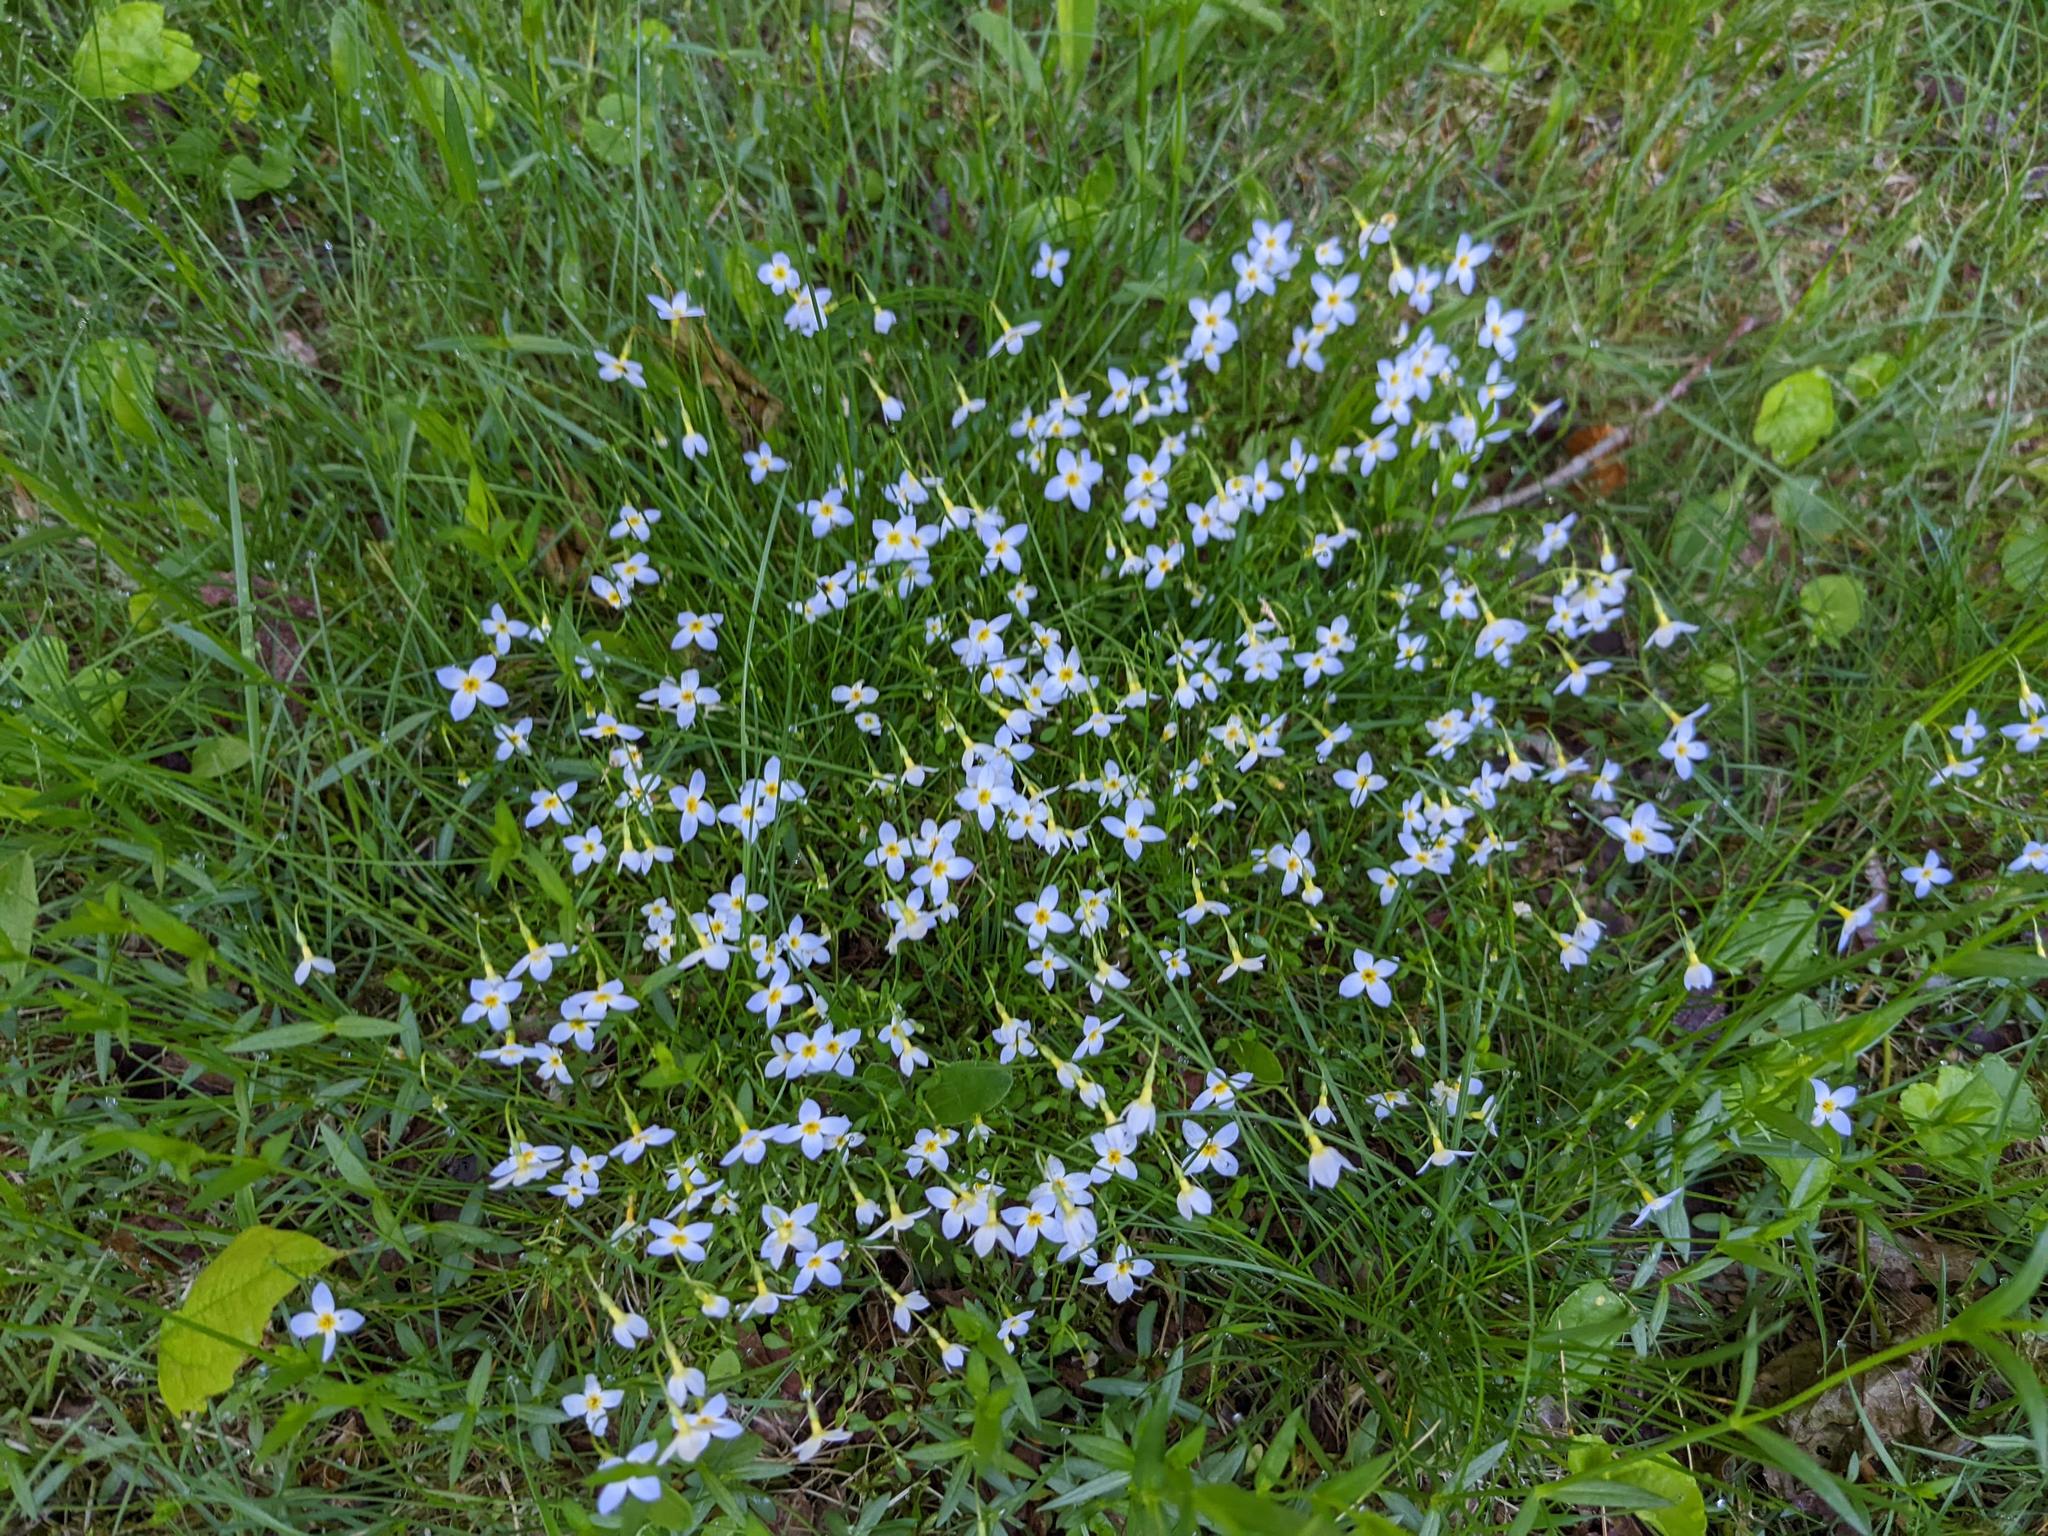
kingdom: Plantae
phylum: Tracheophyta
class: Magnoliopsida
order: Gentianales
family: Rubiaceae
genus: Houstonia
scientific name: Houstonia caerulea
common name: Bluets
